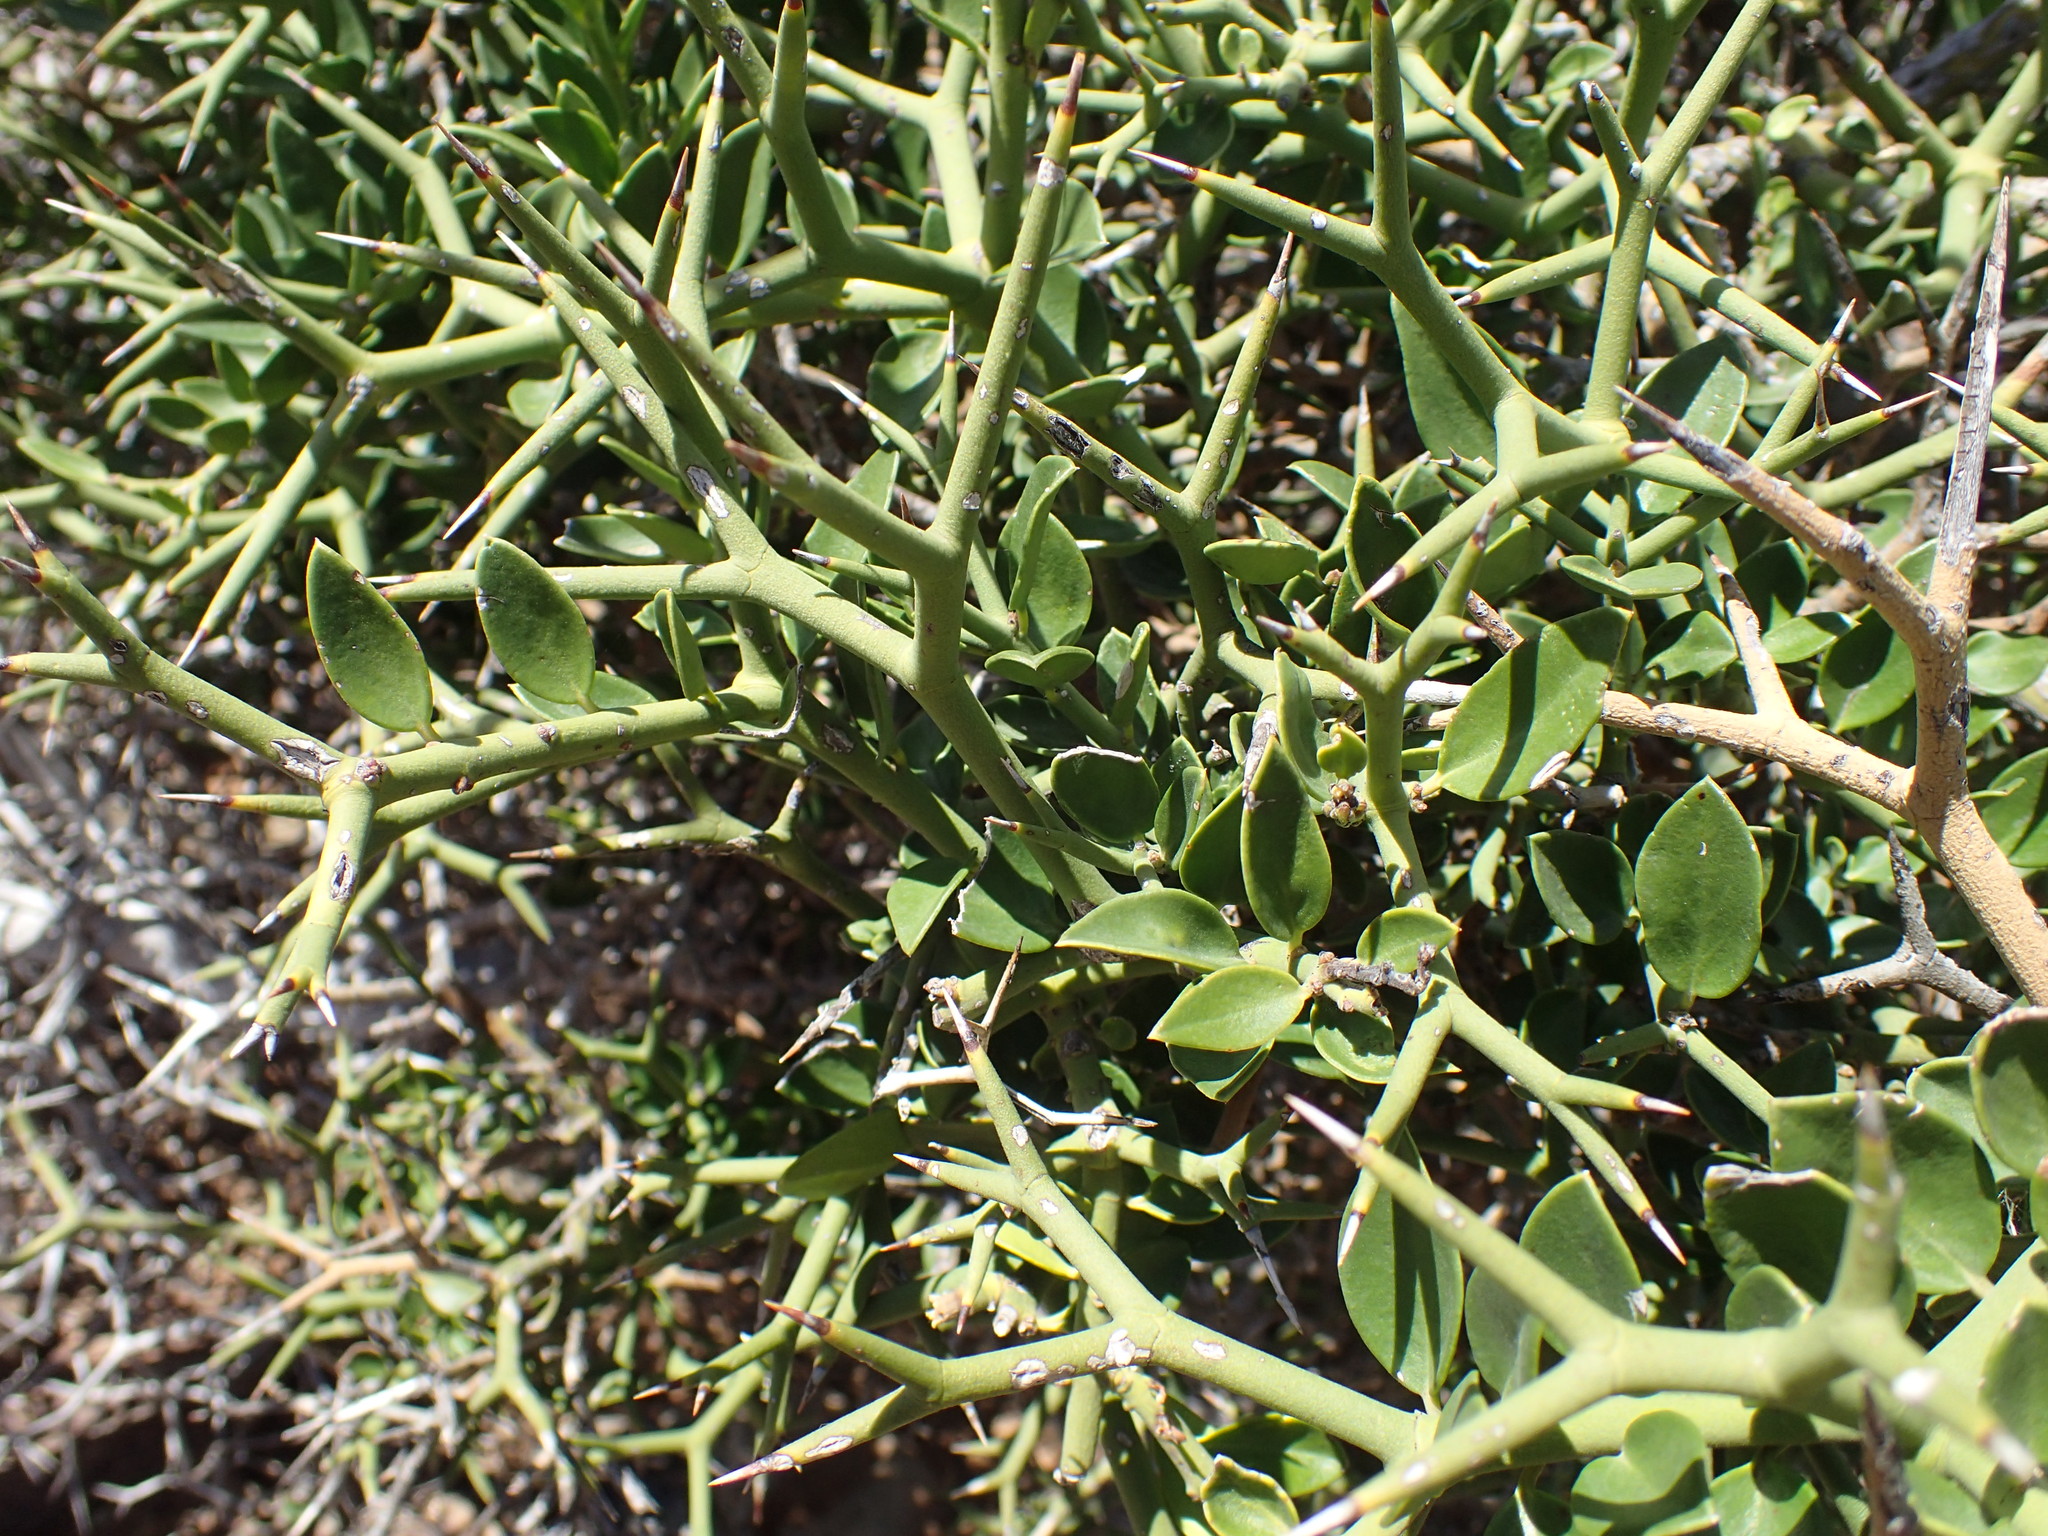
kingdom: Plantae
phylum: Tracheophyta
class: Magnoliopsida
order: Gentianales
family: Apocynaceae
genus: Carissa
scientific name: Carissa haematocarpa
